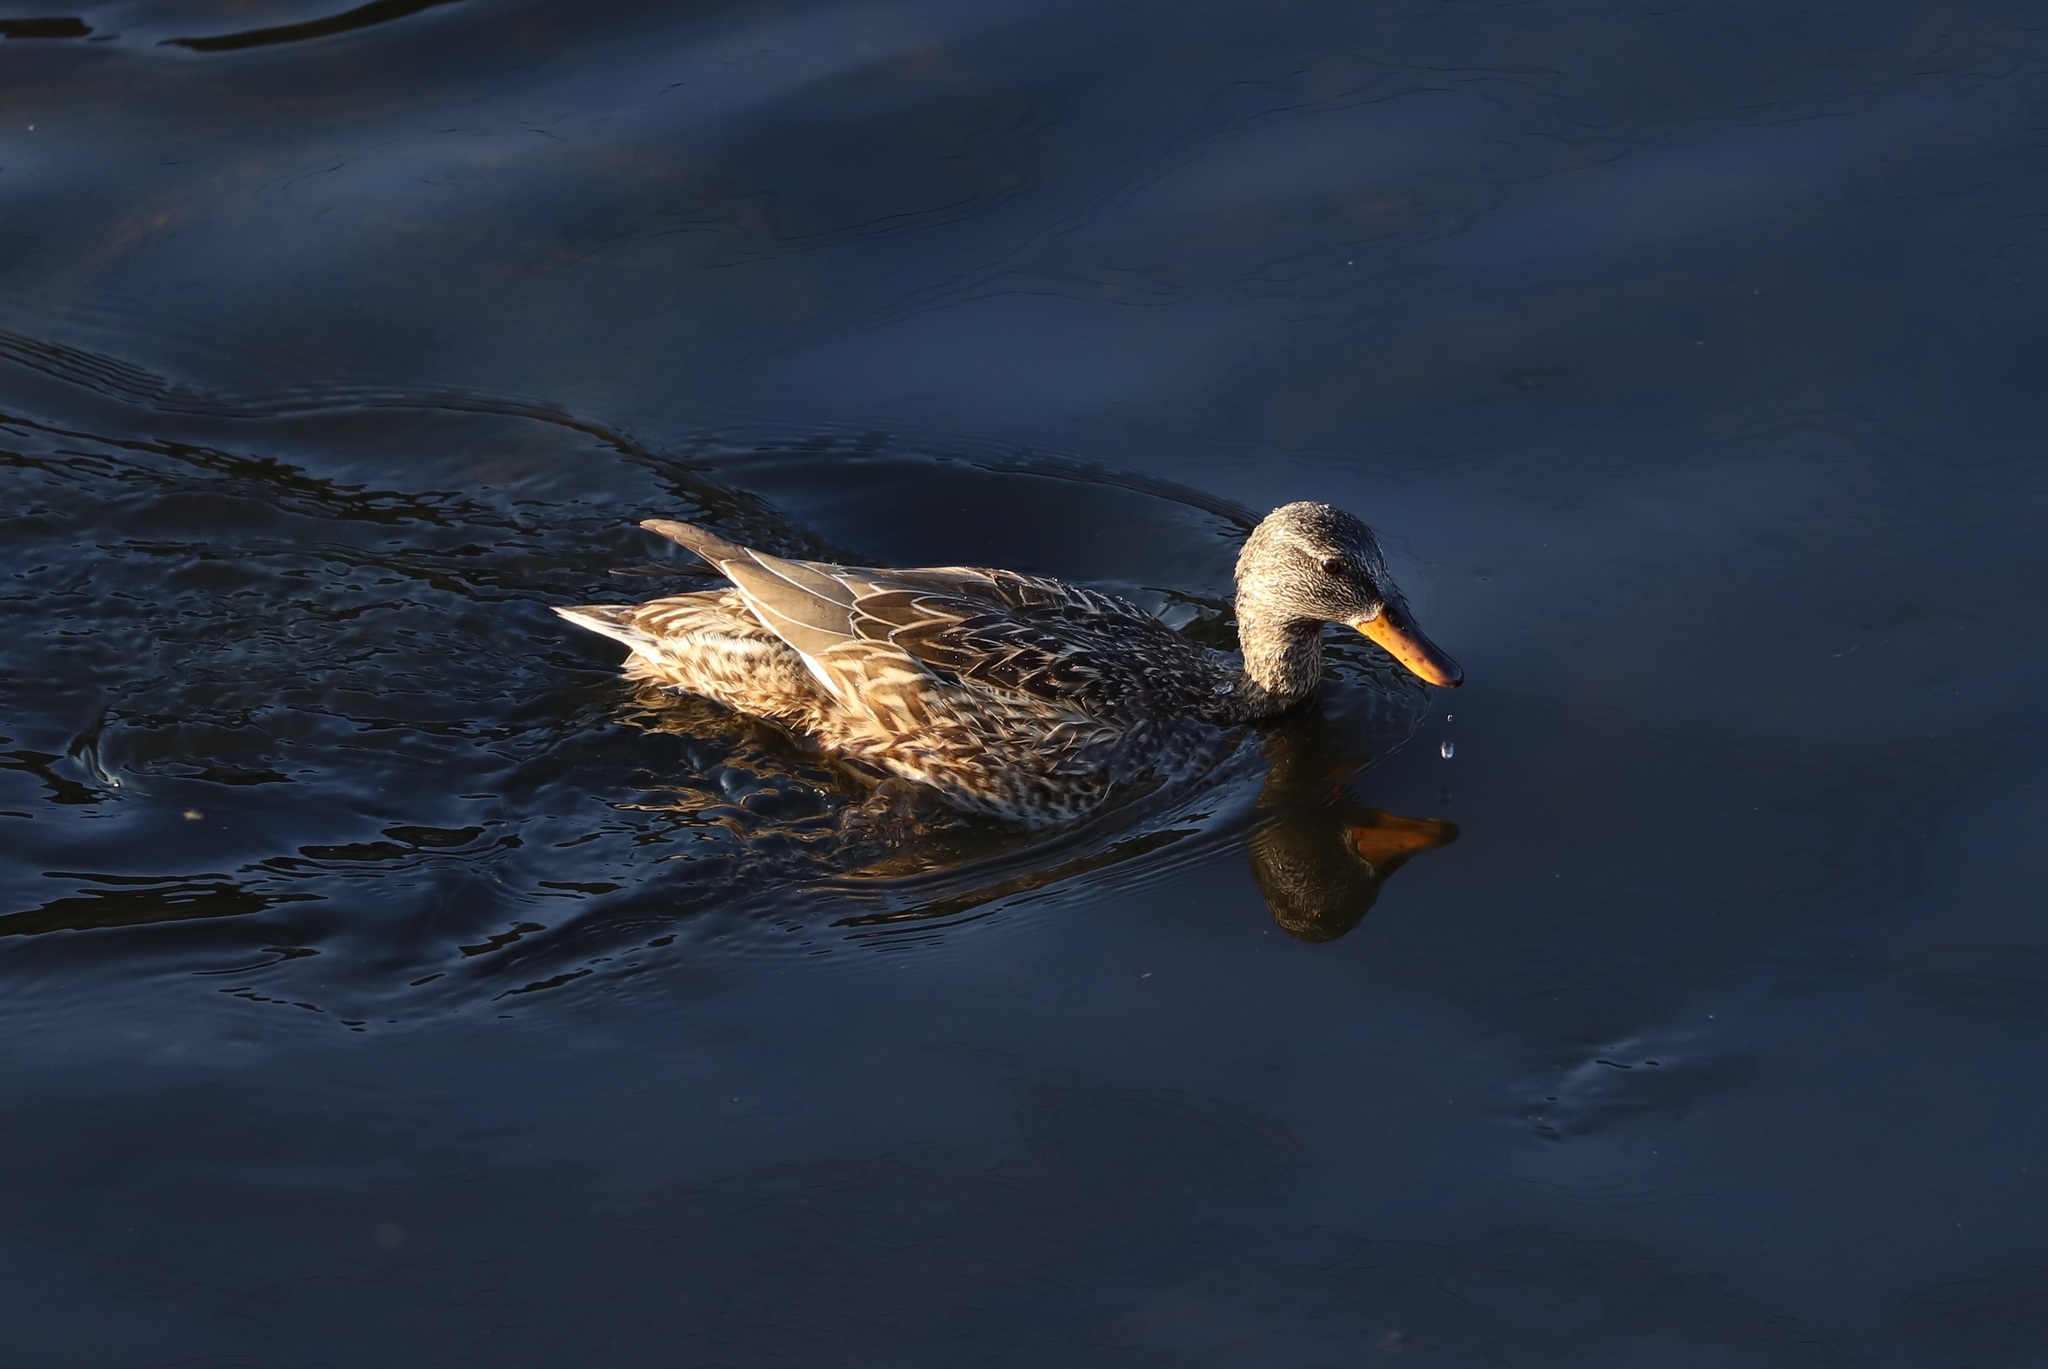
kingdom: Animalia
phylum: Chordata
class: Aves
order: Anseriformes
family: Anatidae
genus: Mareca
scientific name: Mareca strepera
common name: Gadwall
